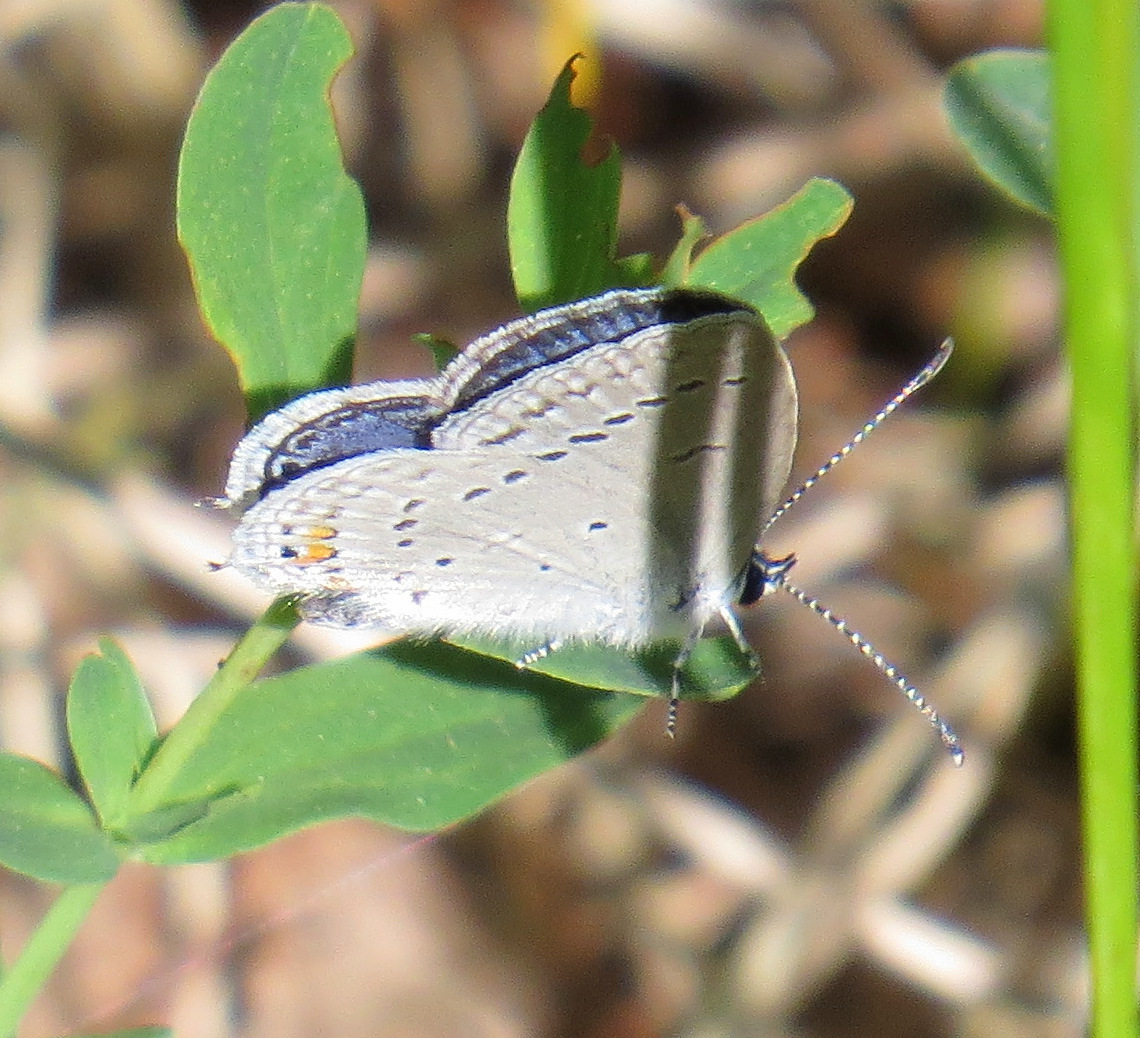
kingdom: Animalia
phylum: Arthropoda
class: Insecta
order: Lepidoptera
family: Lycaenidae
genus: Elkalyce
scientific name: Elkalyce comyntas
